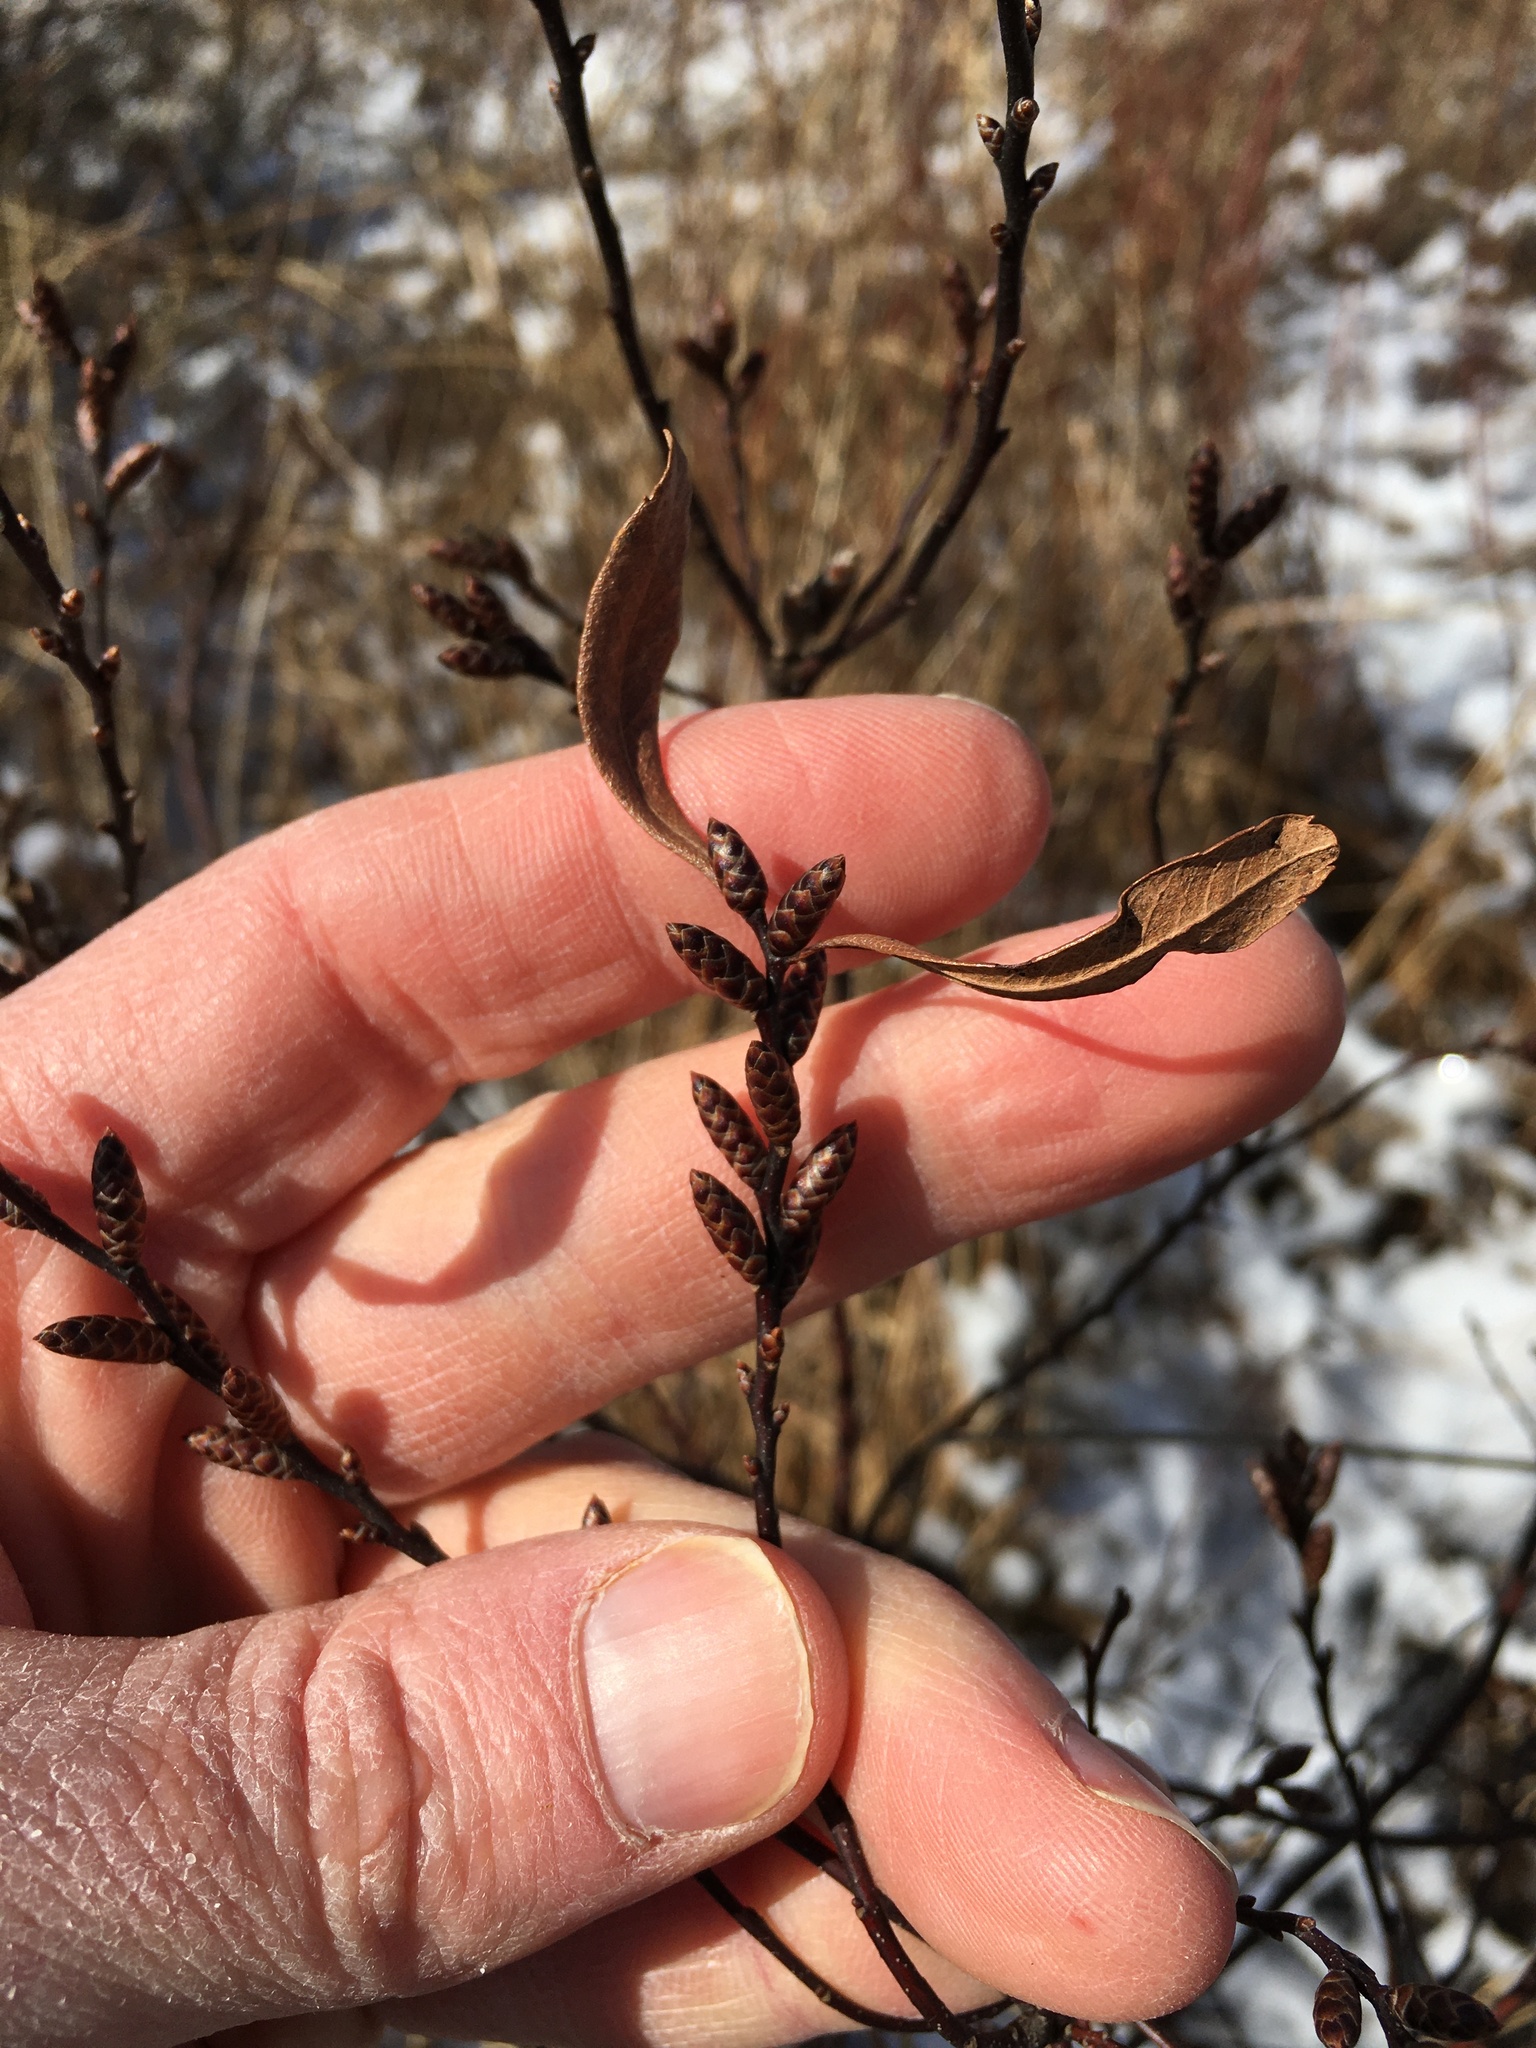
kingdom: Plantae
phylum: Tracheophyta
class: Magnoliopsida
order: Fagales
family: Myricaceae
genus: Myrica
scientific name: Myrica gale
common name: Sweet gale
